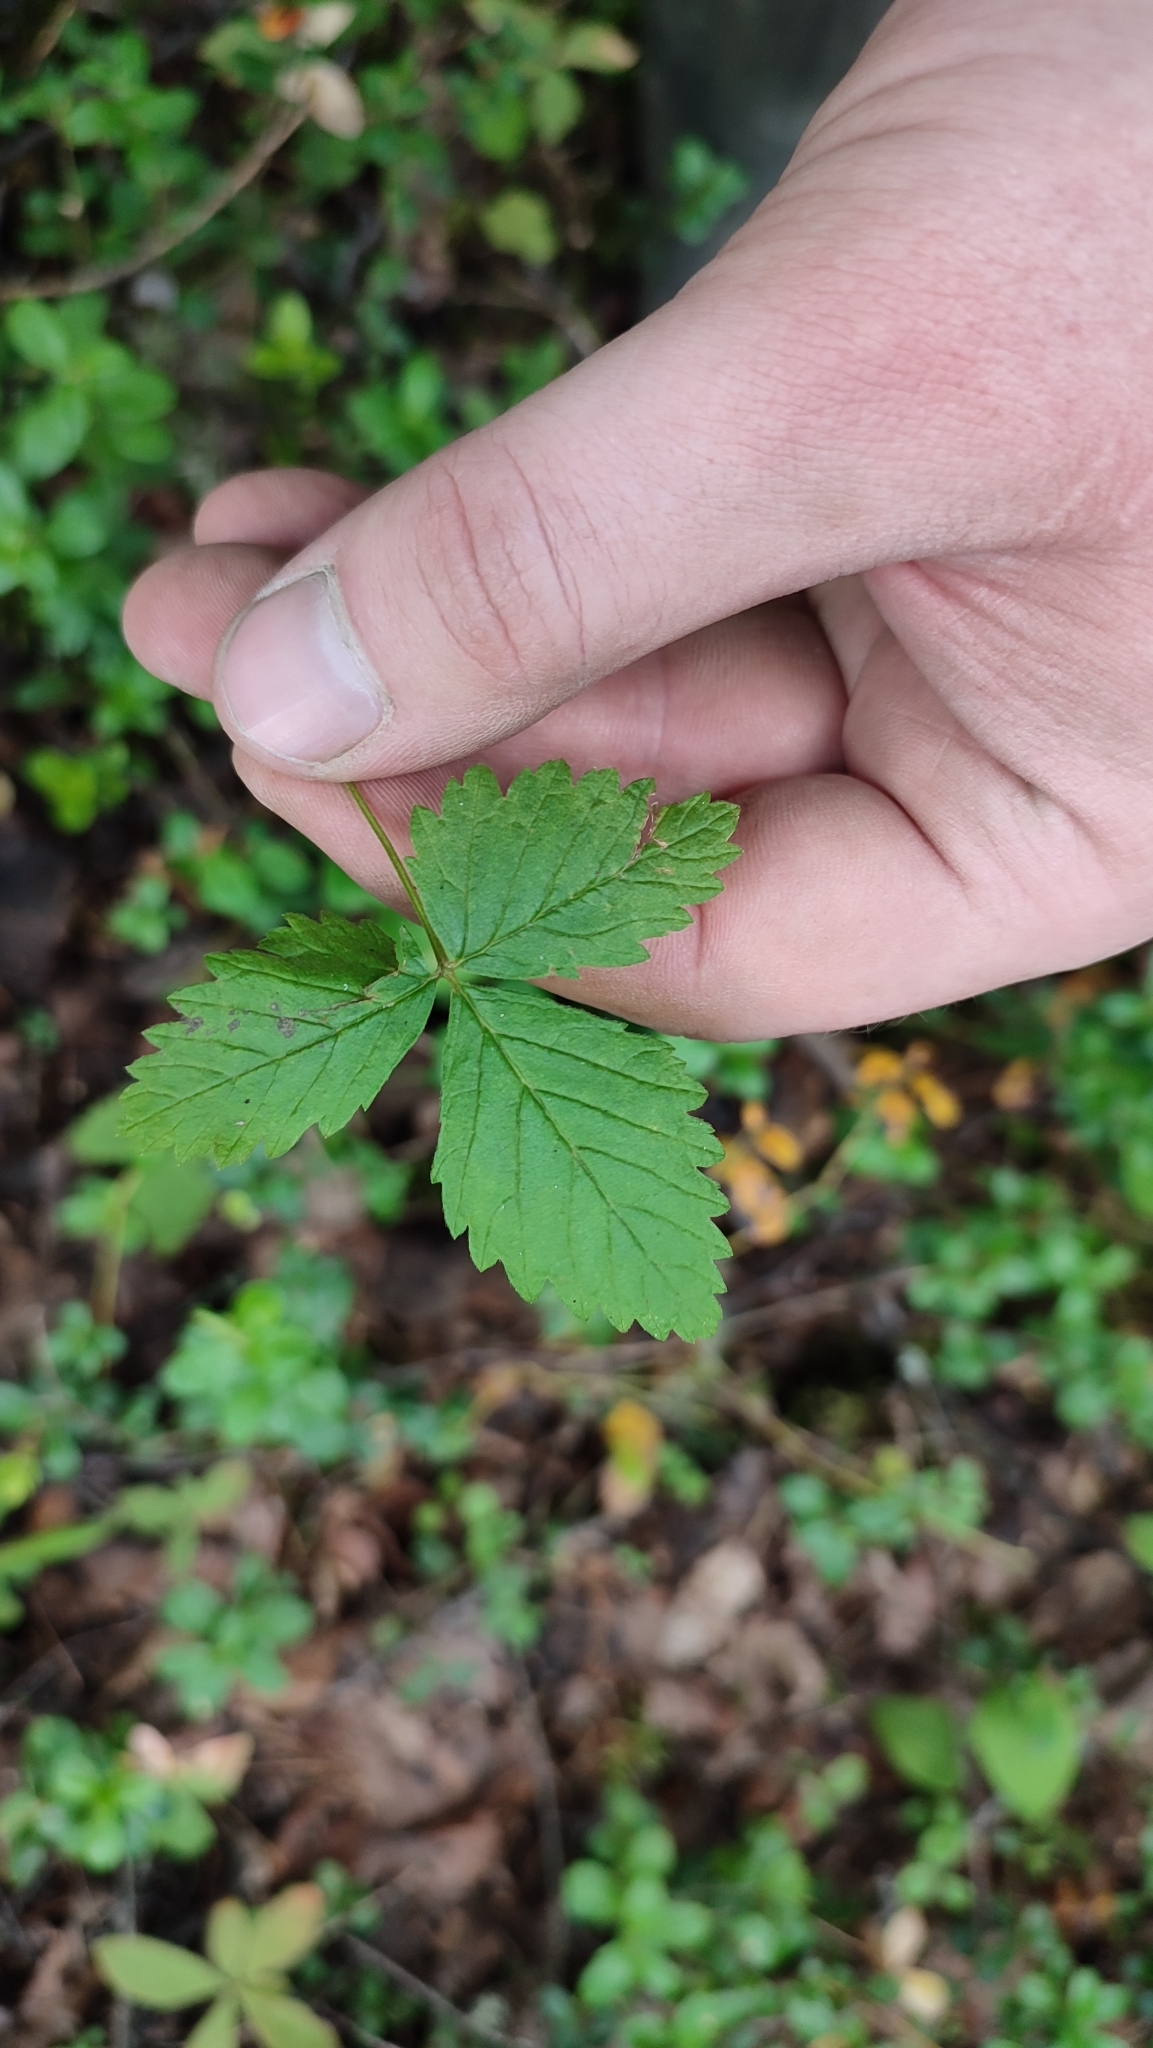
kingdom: Plantae
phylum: Tracheophyta
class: Magnoliopsida
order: Rosales
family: Rosaceae
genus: Rubus
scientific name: Rubus arcticus
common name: Arctic bramble
